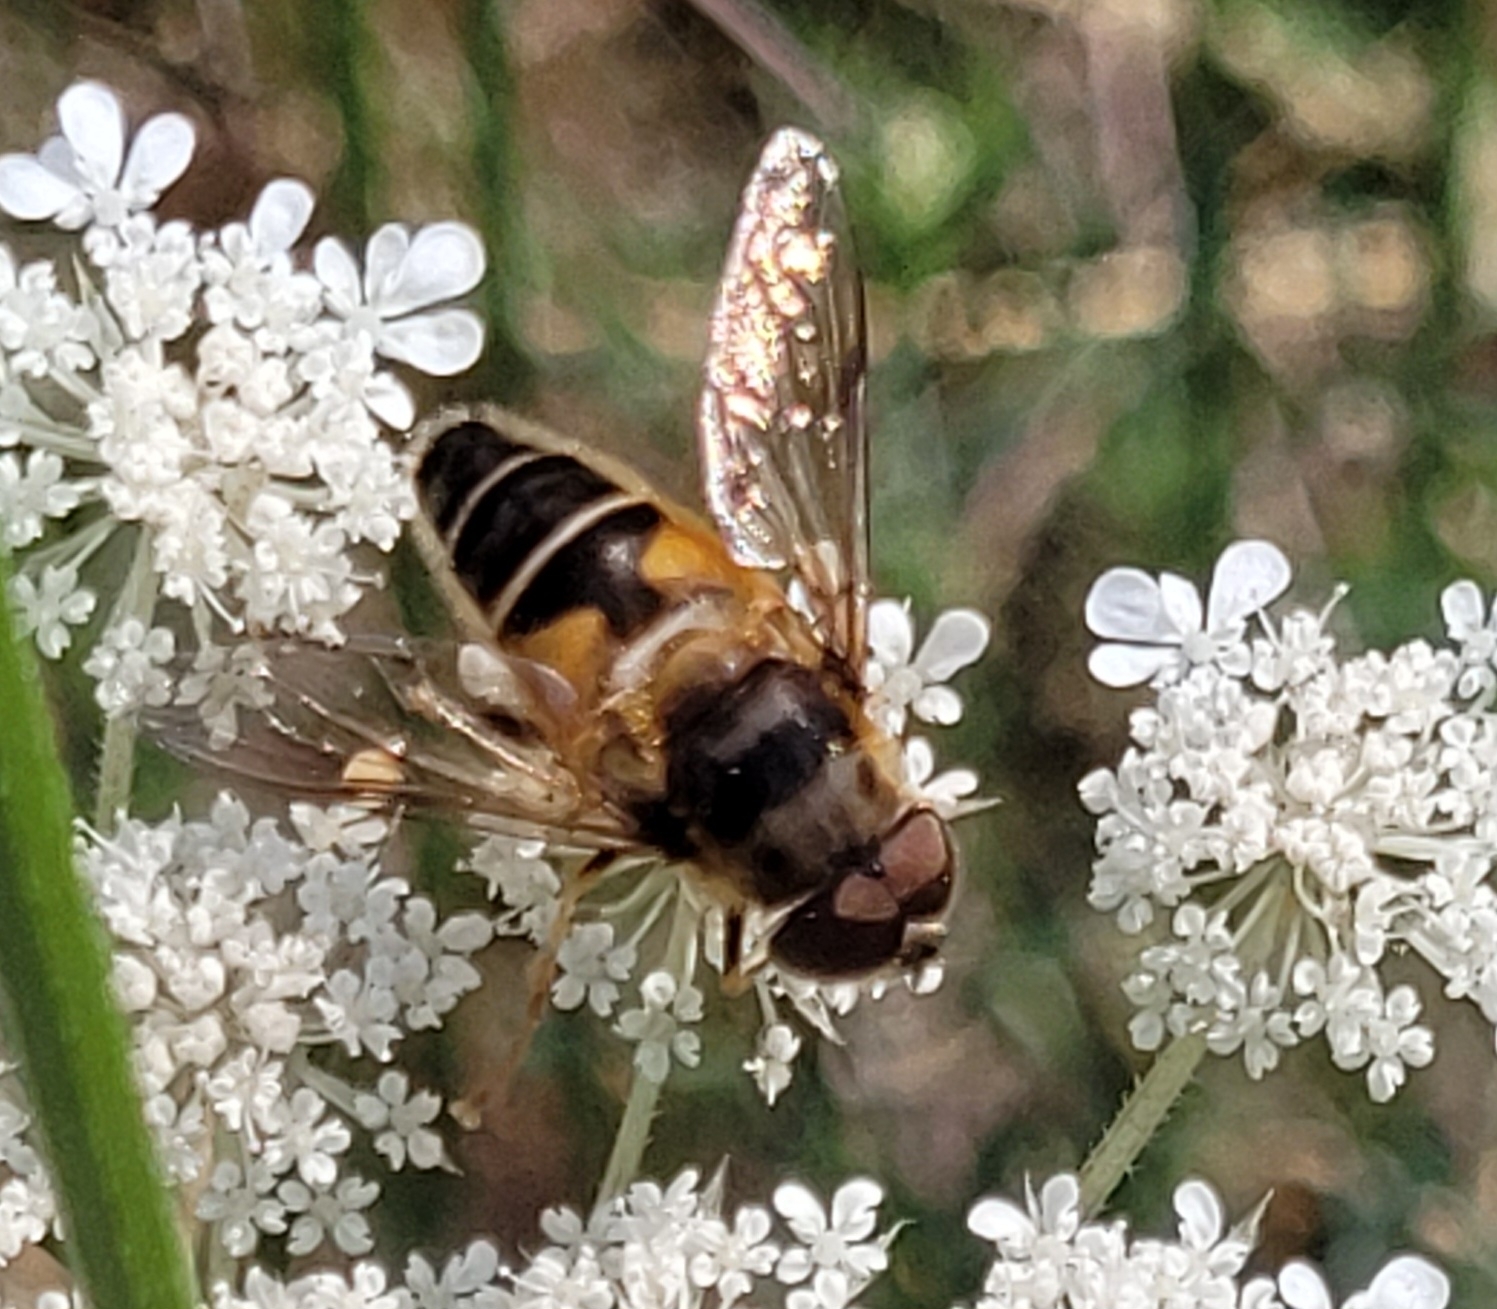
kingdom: Animalia
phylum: Arthropoda
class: Insecta
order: Diptera
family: Syrphidae
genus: Eristalis
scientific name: Eristalis pertinax
